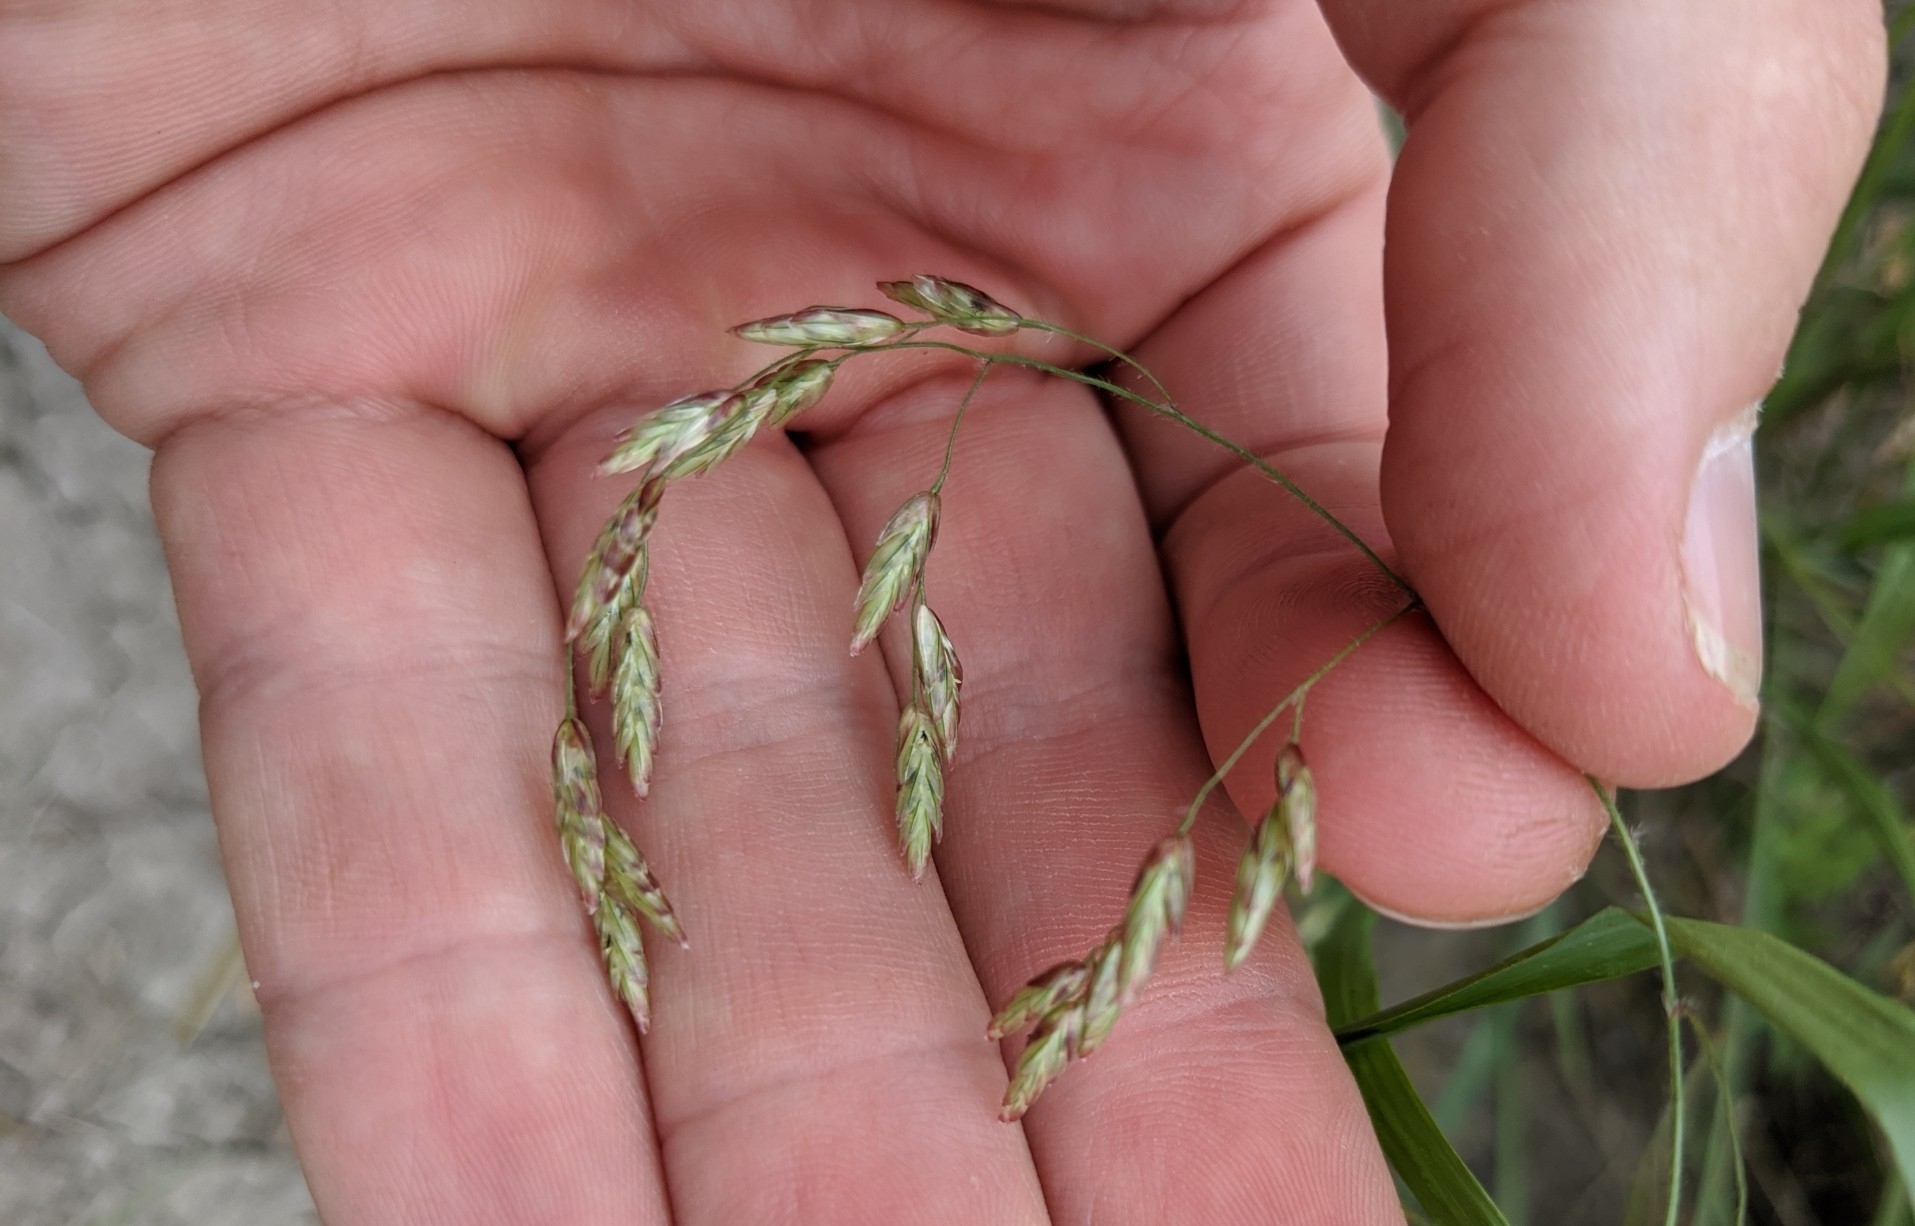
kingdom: Plantae
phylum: Tracheophyta
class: Liliopsida
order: Poales
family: Poaceae
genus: Tridens
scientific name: Tridens texanus
